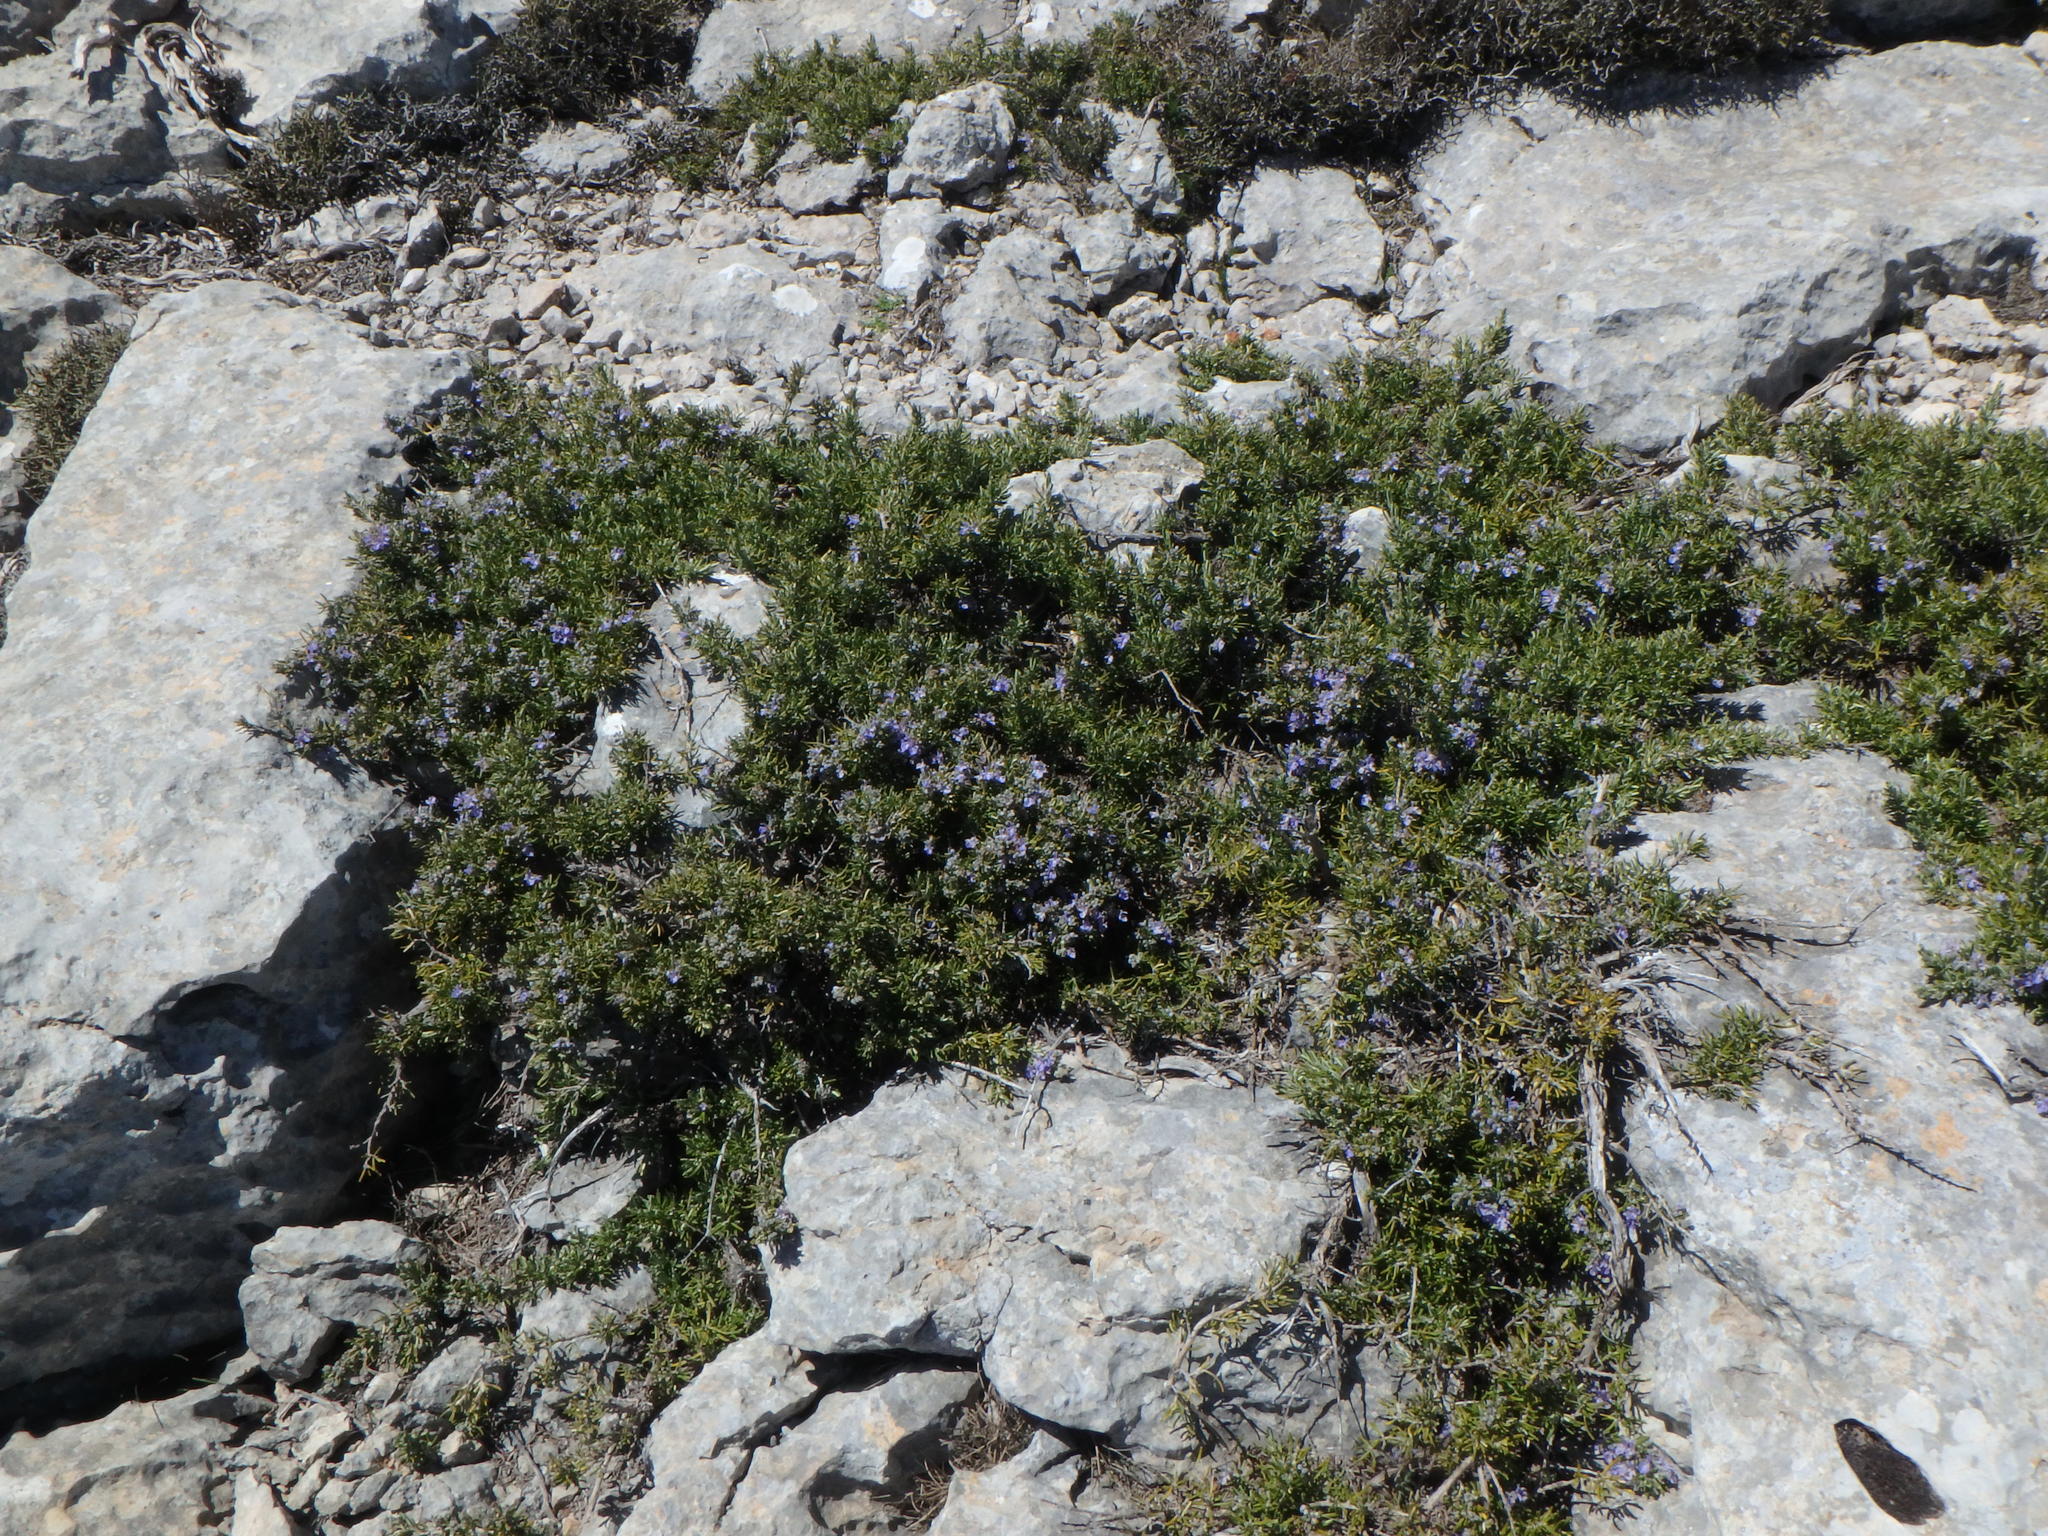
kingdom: Plantae
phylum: Tracheophyta
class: Magnoliopsida
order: Lamiales
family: Lamiaceae
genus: Salvia
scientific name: Salvia rosmarinus
